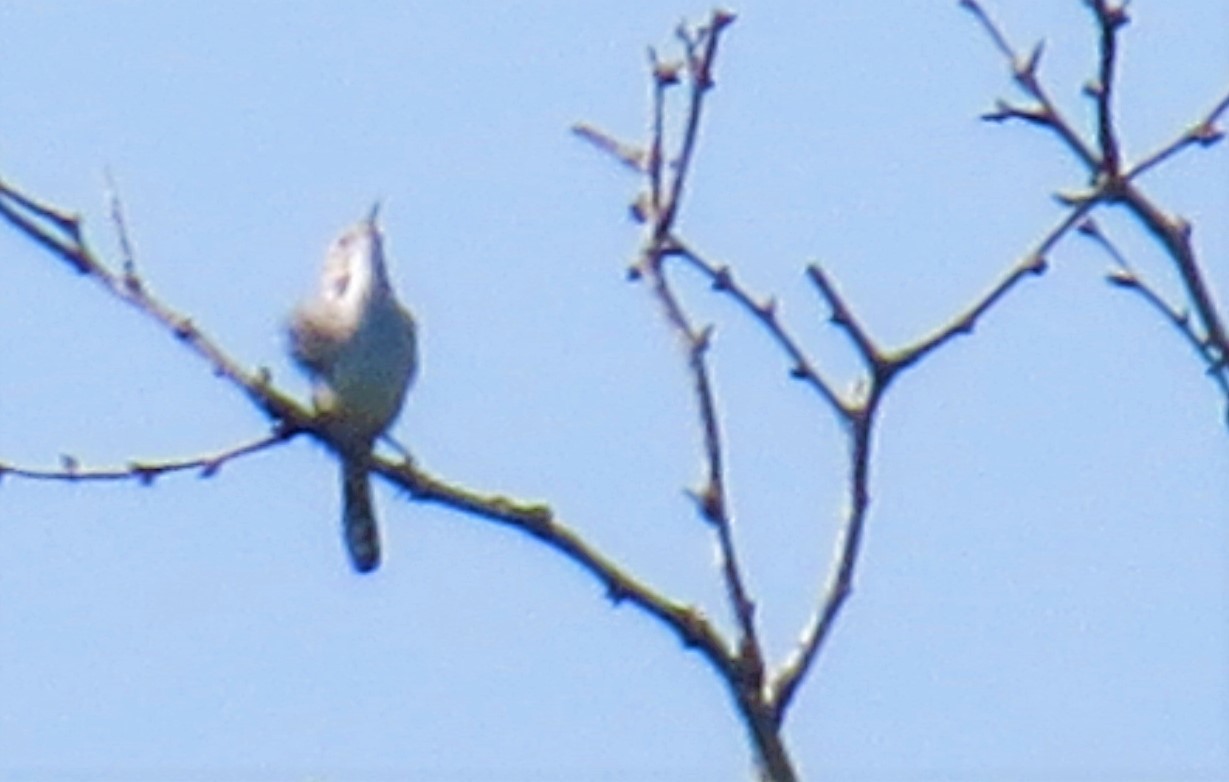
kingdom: Animalia
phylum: Chordata
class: Aves
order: Passeriformes
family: Troglodytidae
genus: Thryomanes
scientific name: Thryomanes bewickii
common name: Bewick's wren
